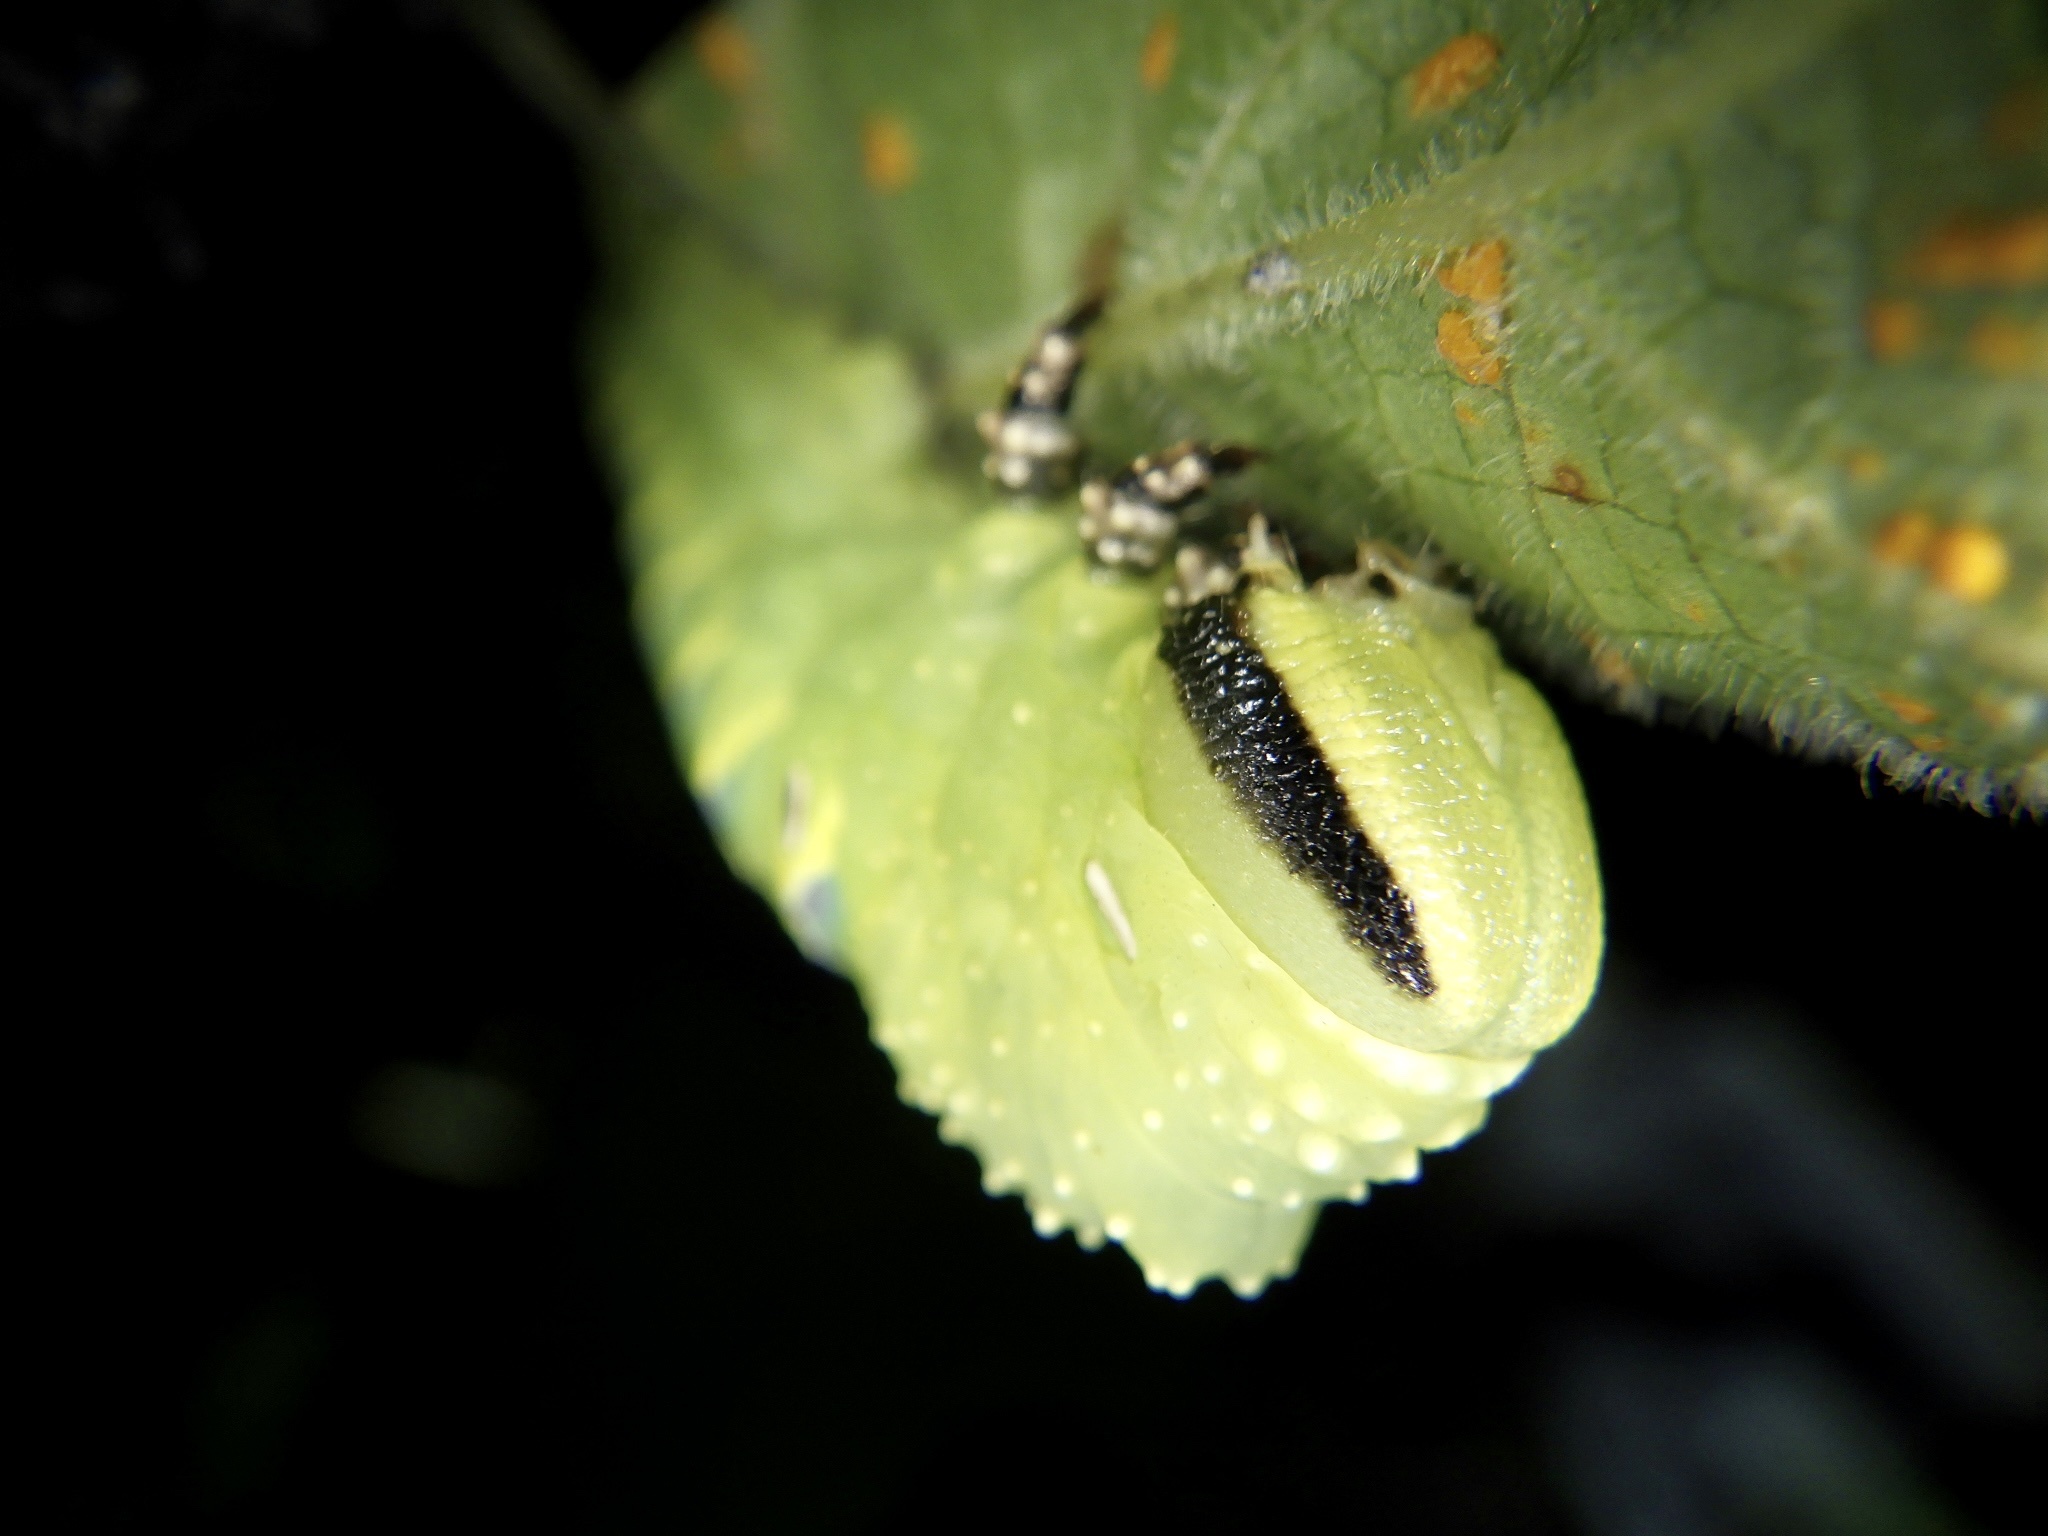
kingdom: Animalia
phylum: Arthropoda
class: Insecta
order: Lepidoptera
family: Sphingidae
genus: Acherontia
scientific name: Acherontia lachesis
